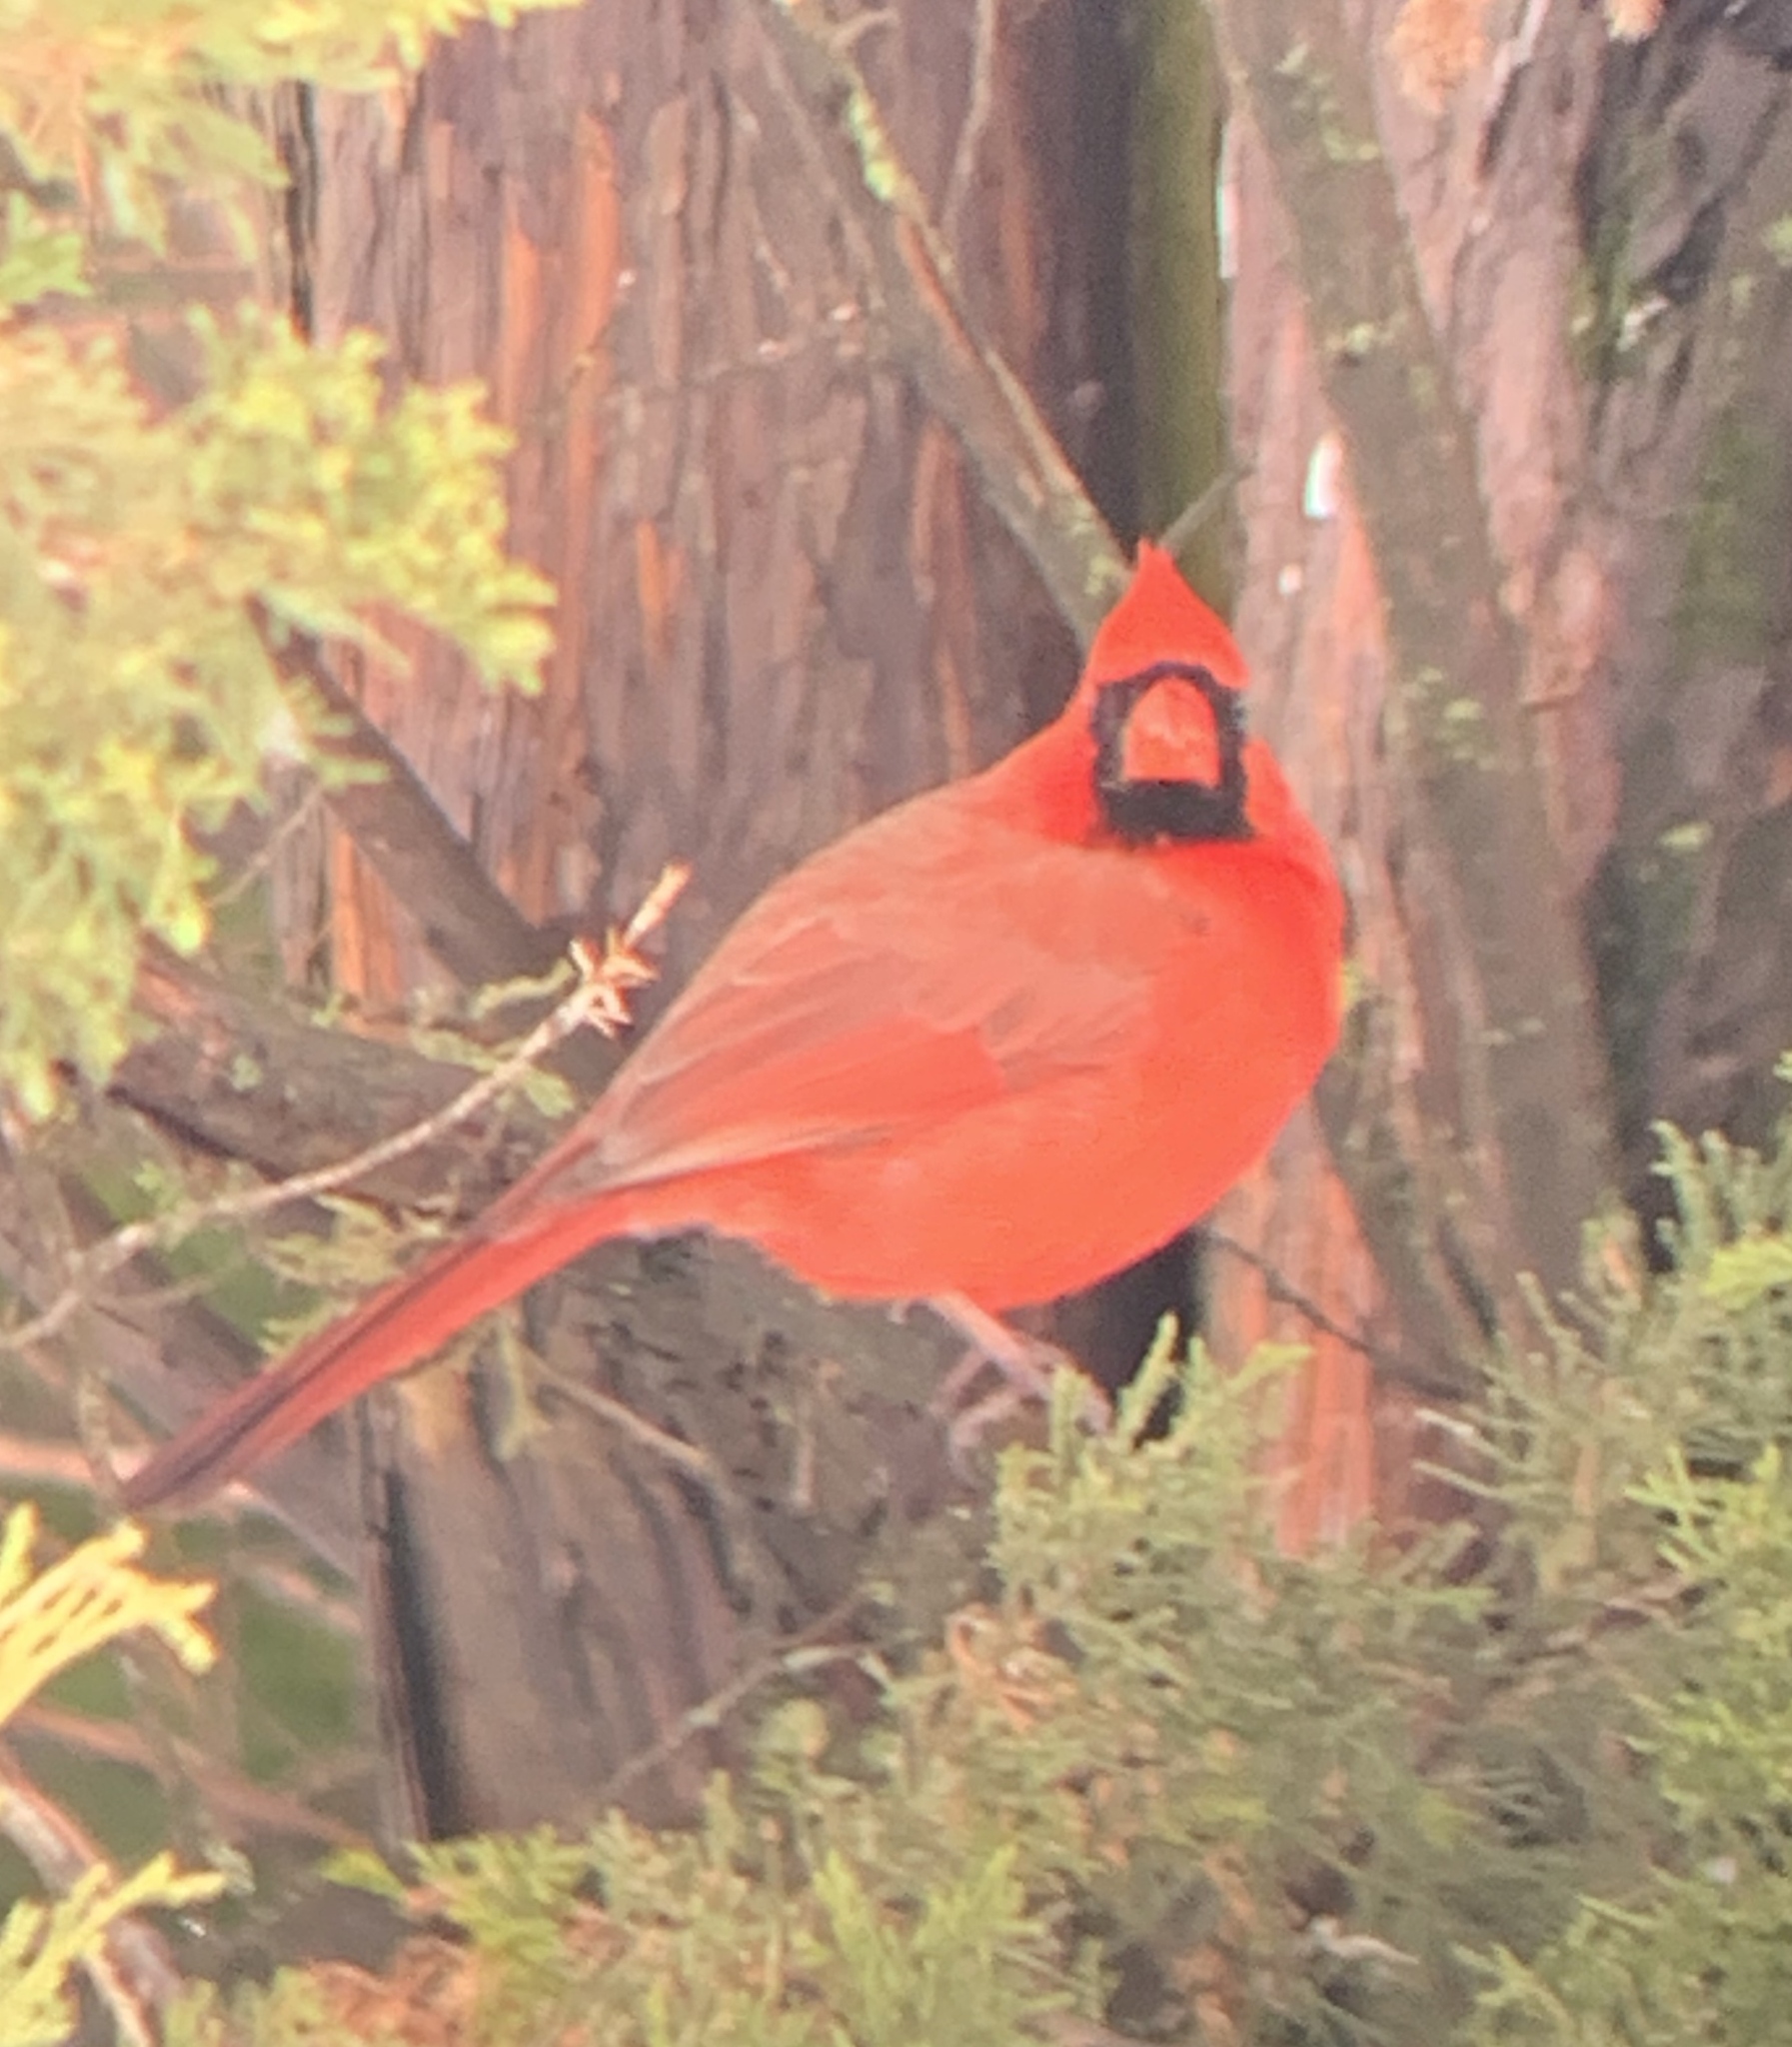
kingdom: Animalia
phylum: Chordata
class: Aves
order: Passeriformes
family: Cardinalidae
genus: Cardinalis
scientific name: Cardinalis cardinalis
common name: Northern cardinal
